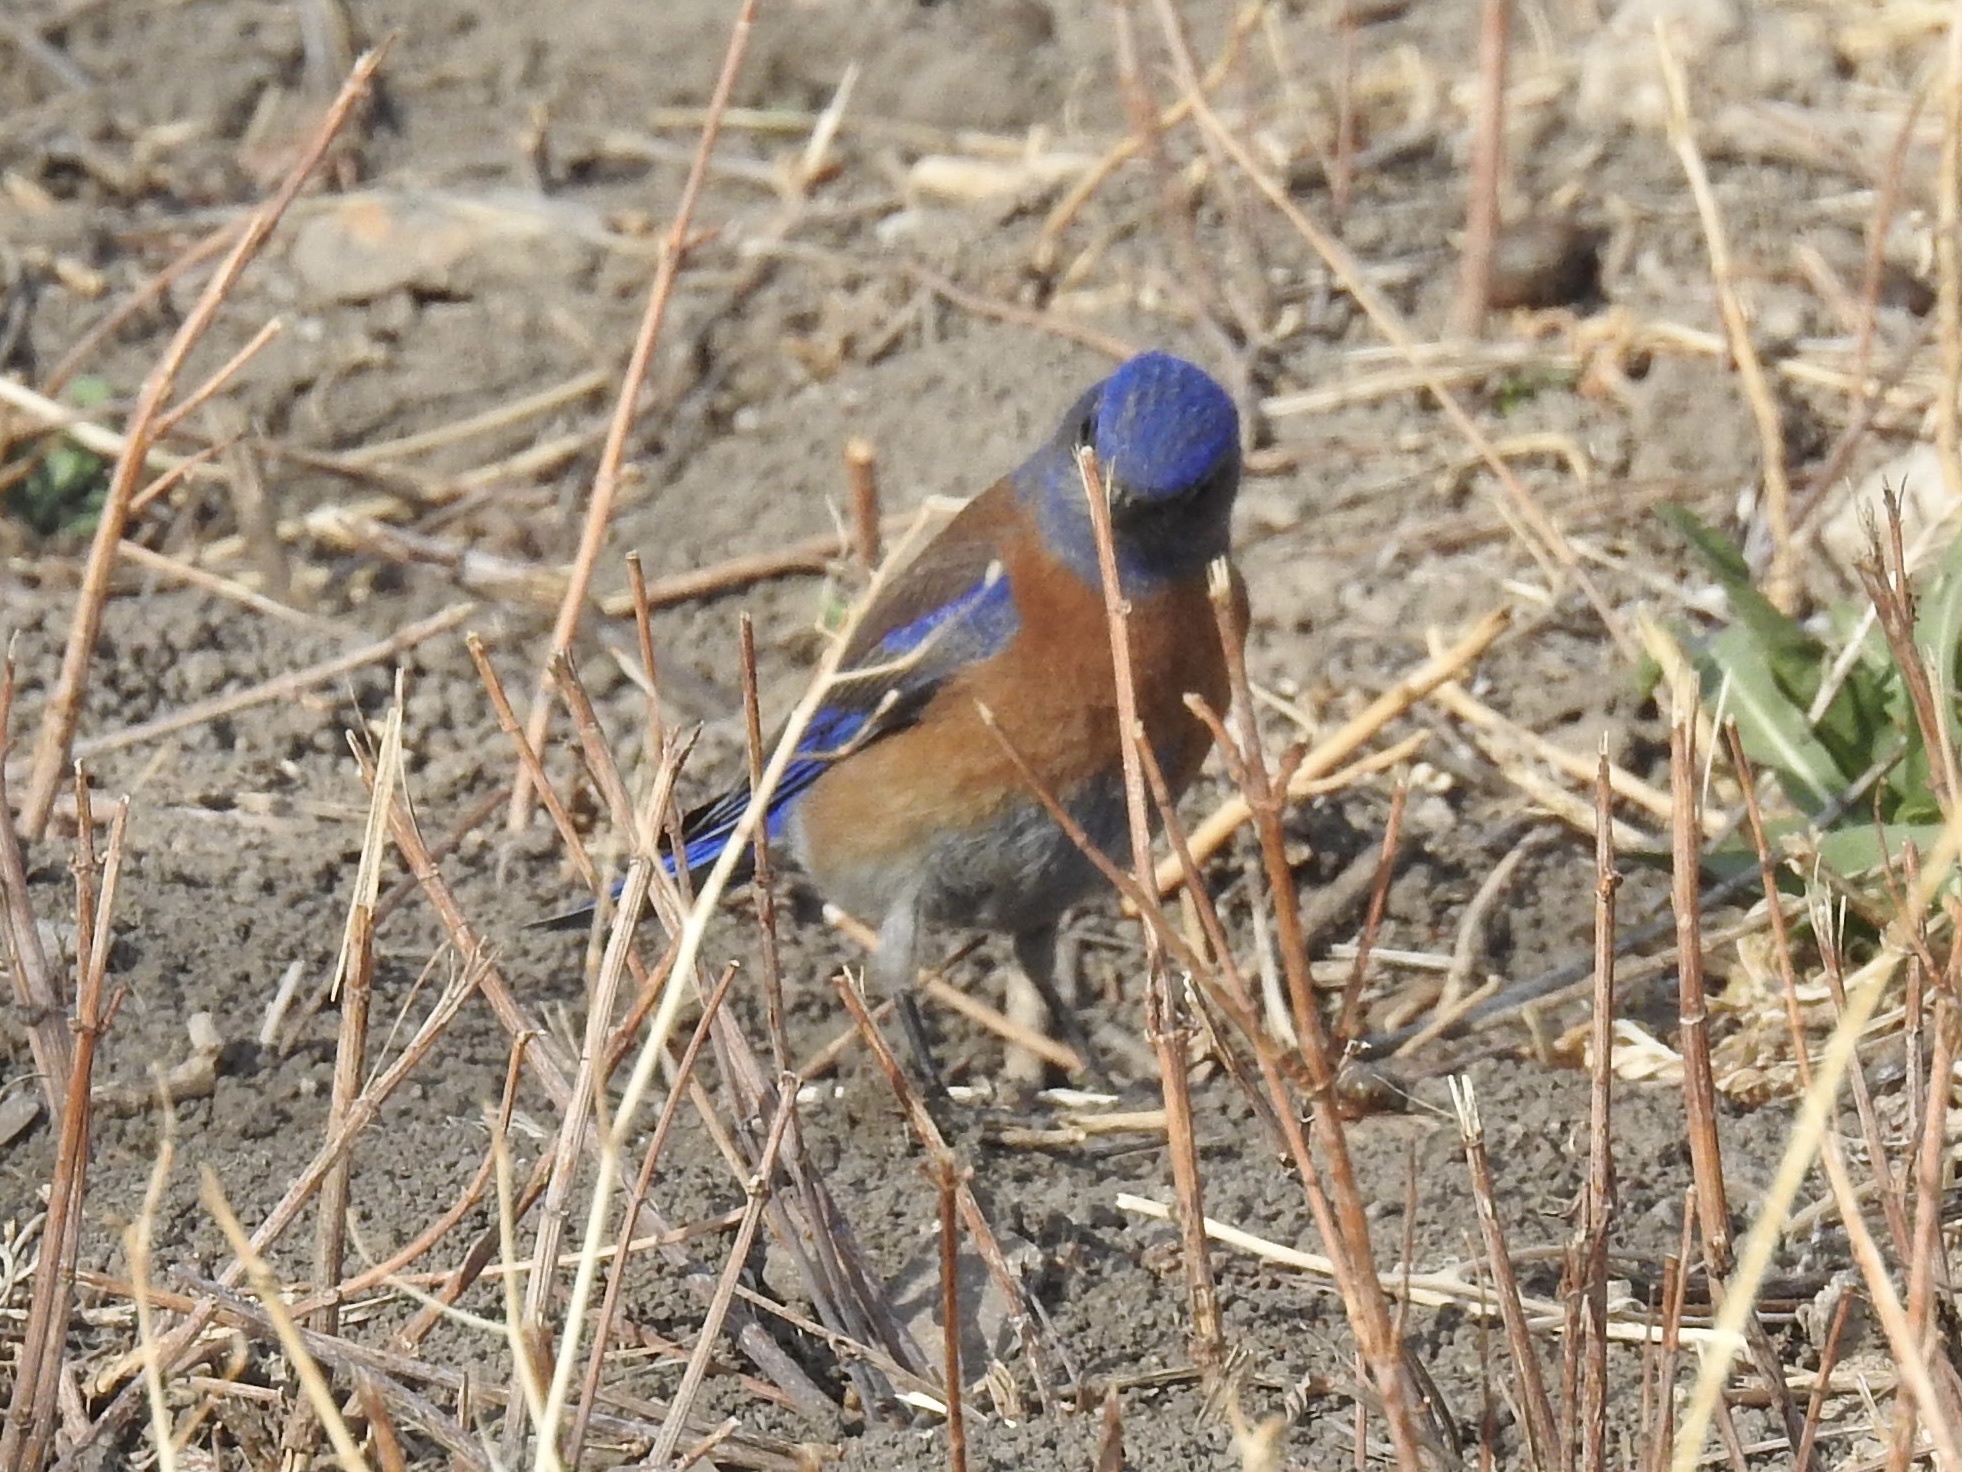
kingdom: Animalia
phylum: Chordata
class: Aves
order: Passeriformes
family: Turdidae
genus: Sialia
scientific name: Sialia mexicana
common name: Western bluebird
